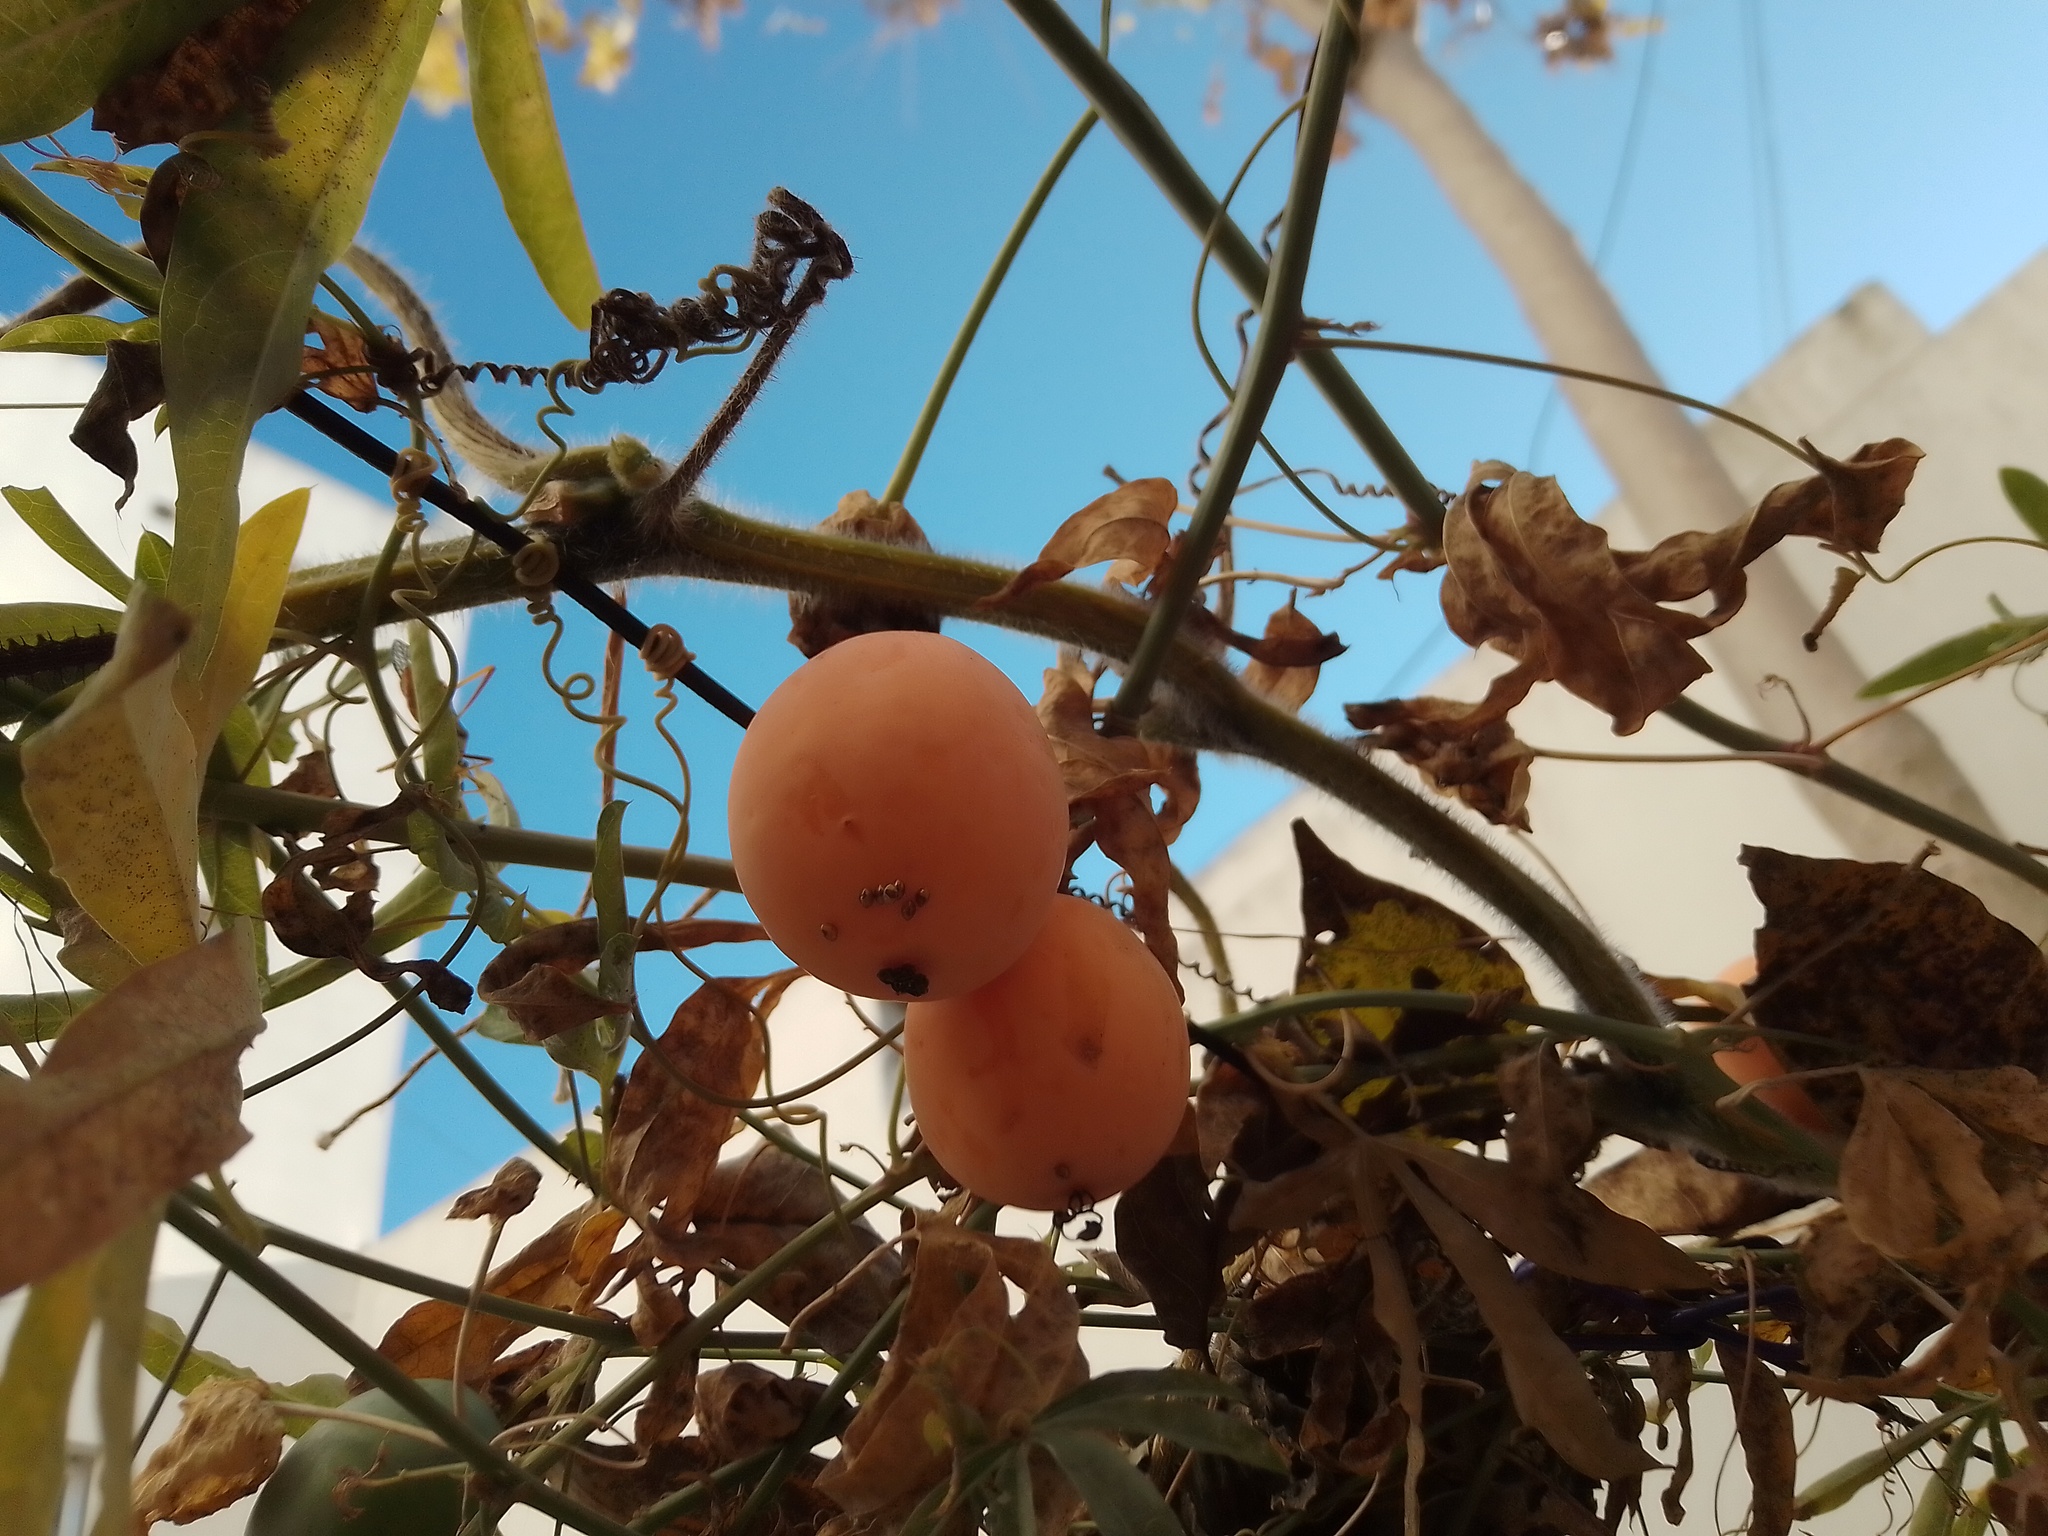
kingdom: Plantae
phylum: Tracheophyta
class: Magnoliopsida
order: Malpighiales
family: Passifloraceae
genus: Passiflora
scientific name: Passiflora caerulea
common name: Blue passionflower
